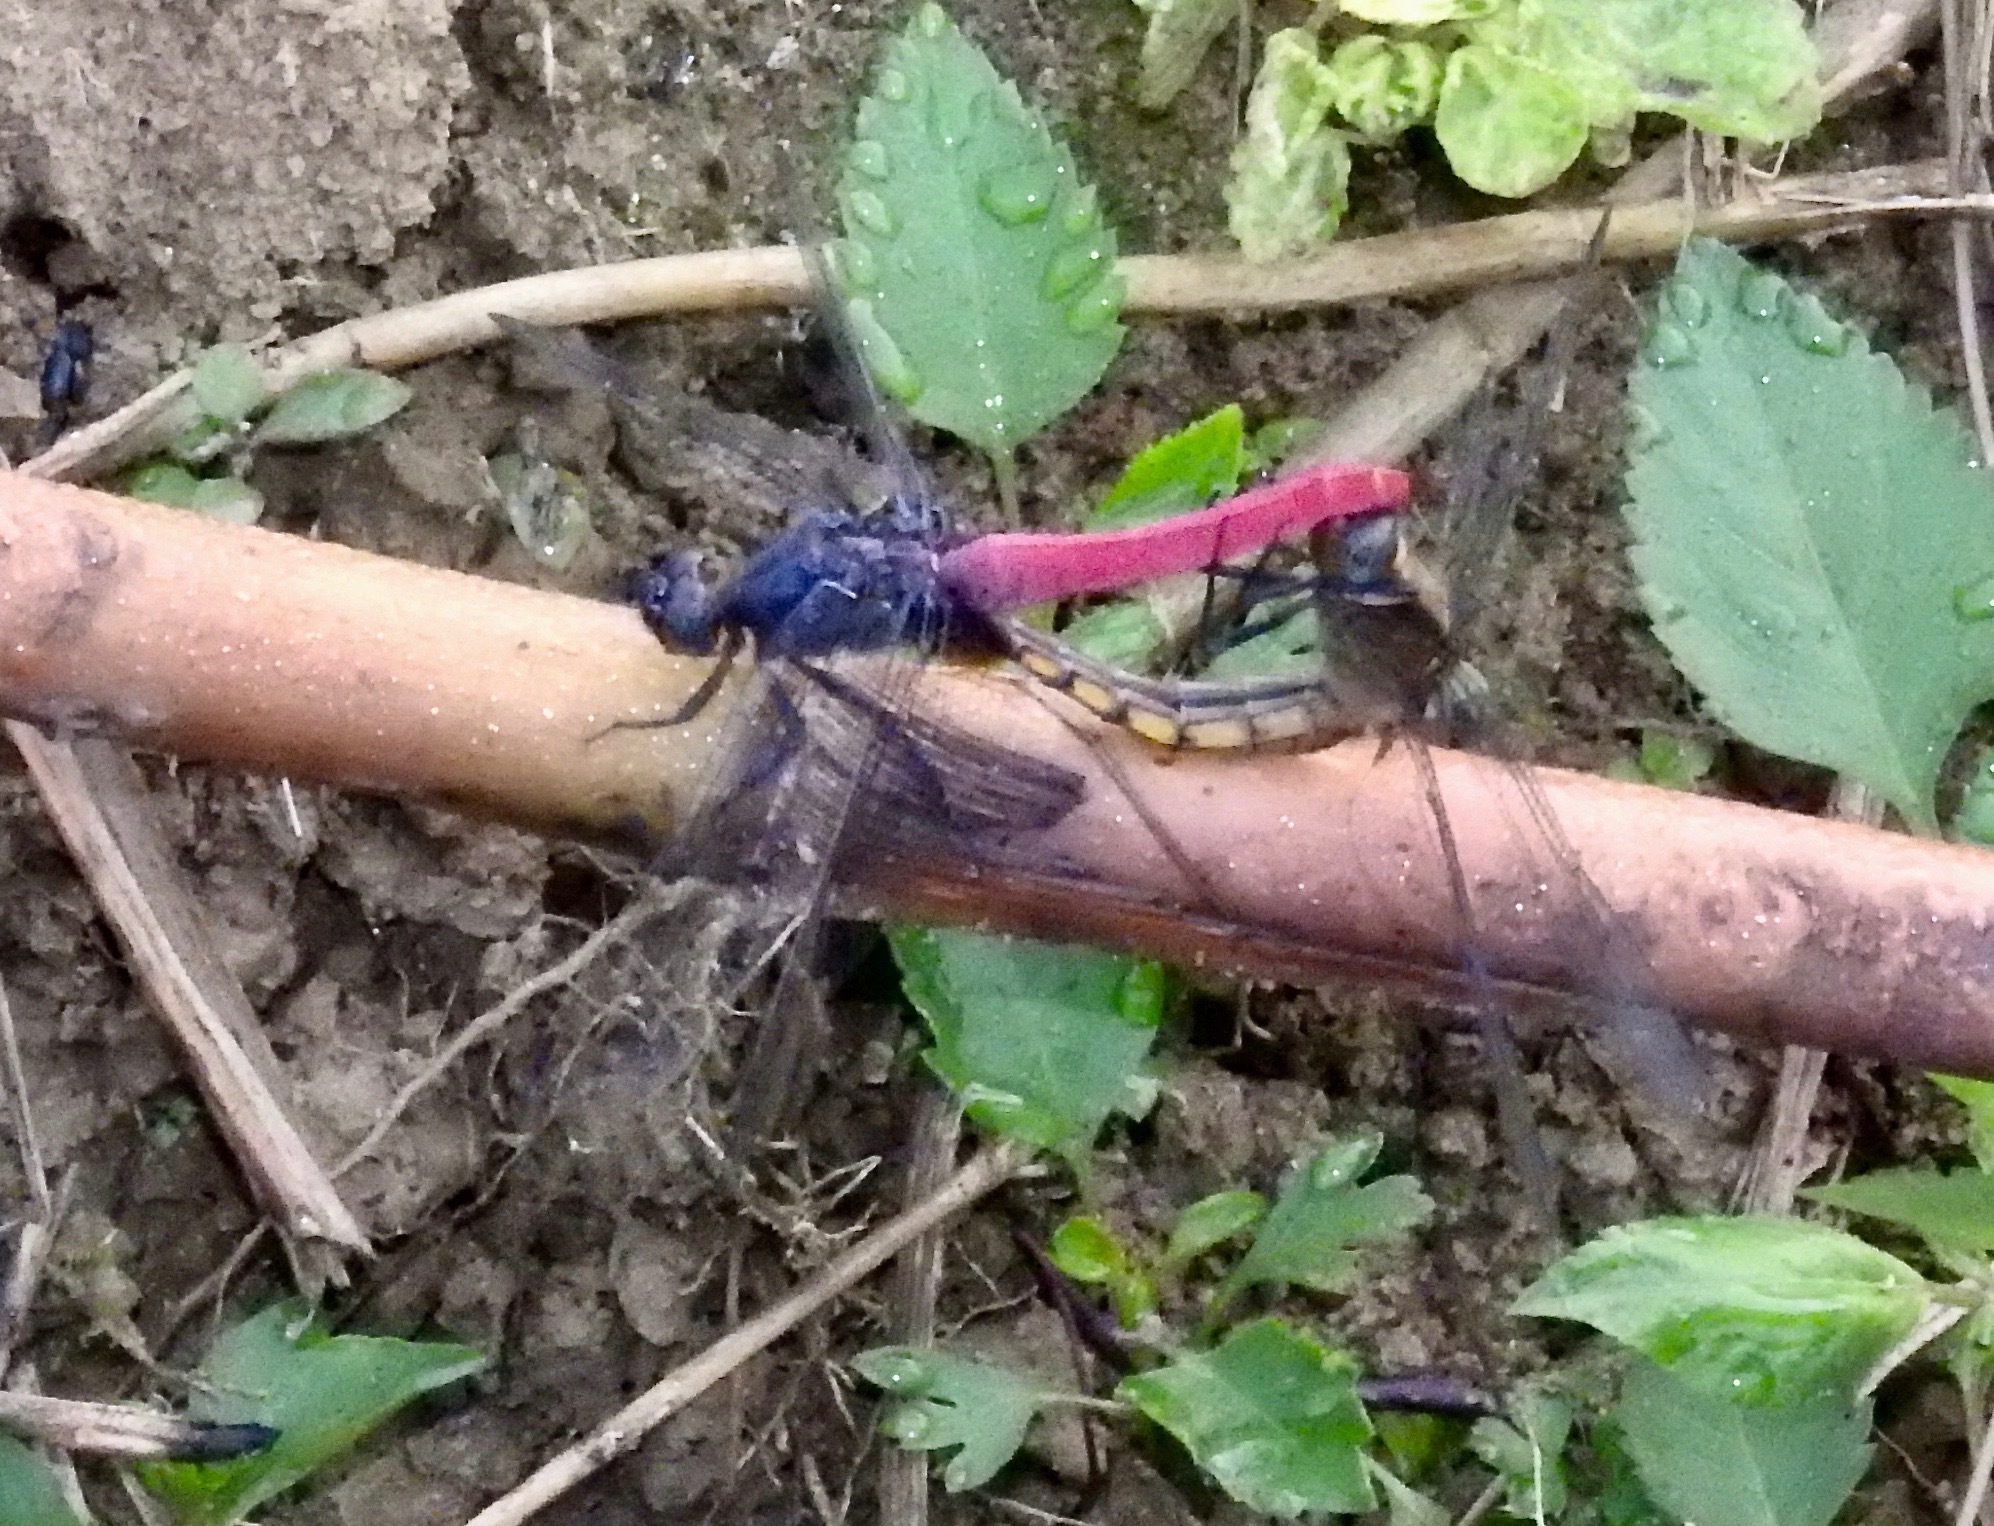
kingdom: Animalia
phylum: Arthropoda
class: Insecta
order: Odonata
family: Libellulidae
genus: Orthetrum
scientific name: Orthetrum pruinosum
